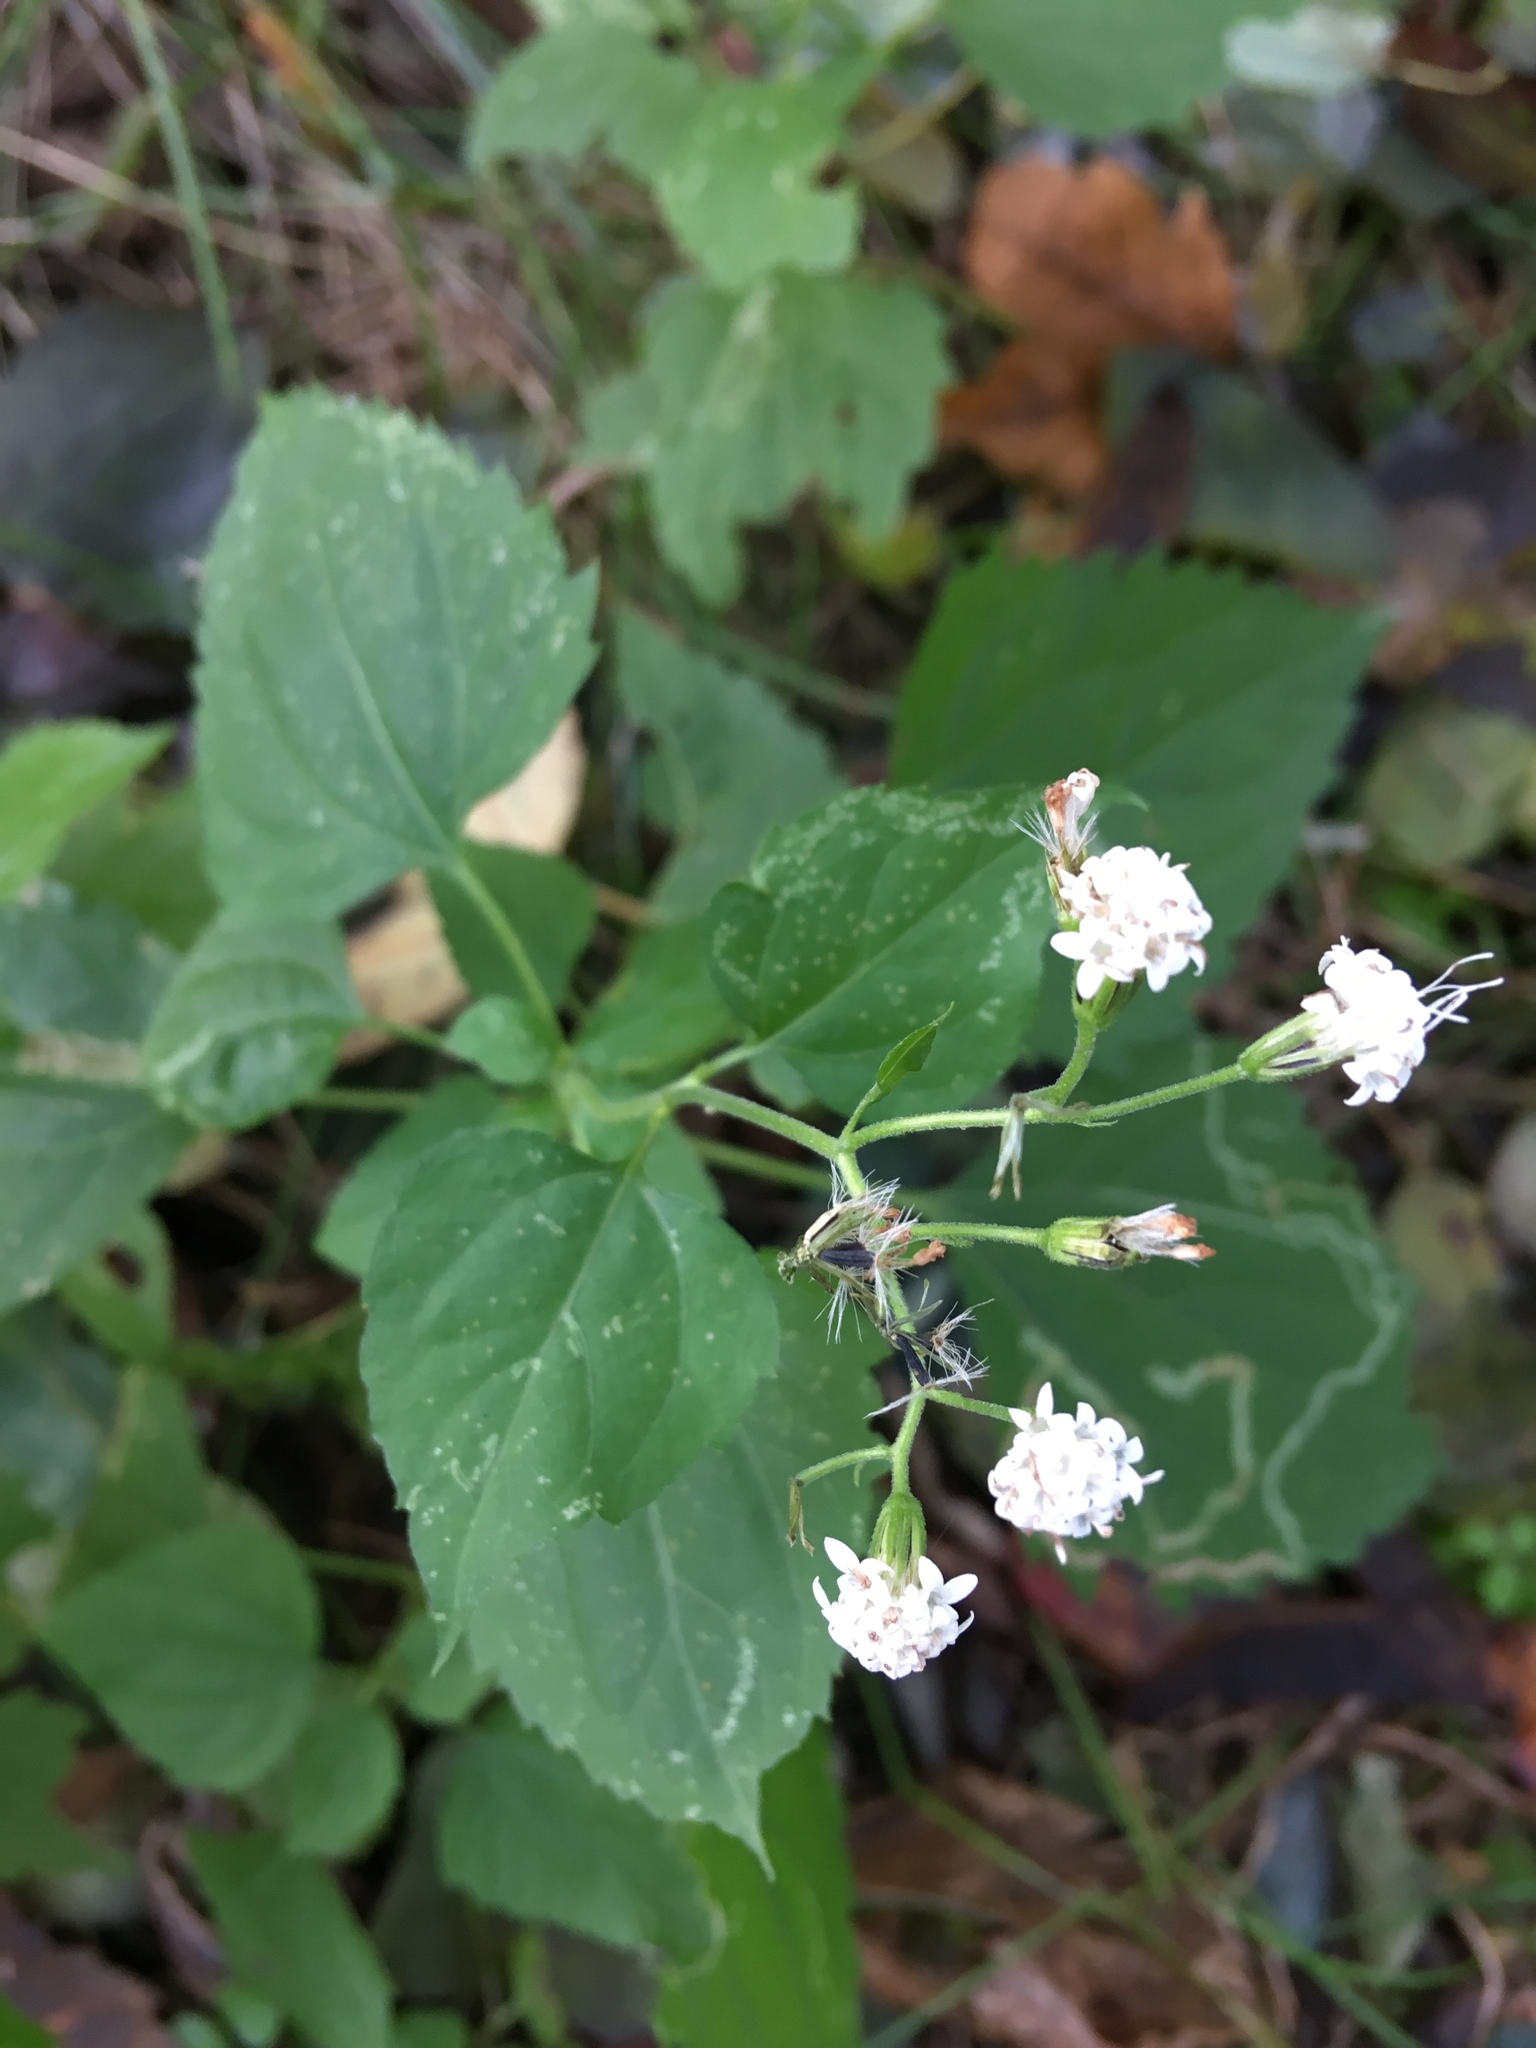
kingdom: Plantae
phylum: Tracheophyta
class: Magnoliopsida
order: Asterales
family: Asteraceae
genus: Ageratina
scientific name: Ageratina altissima
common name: White snakeroot
